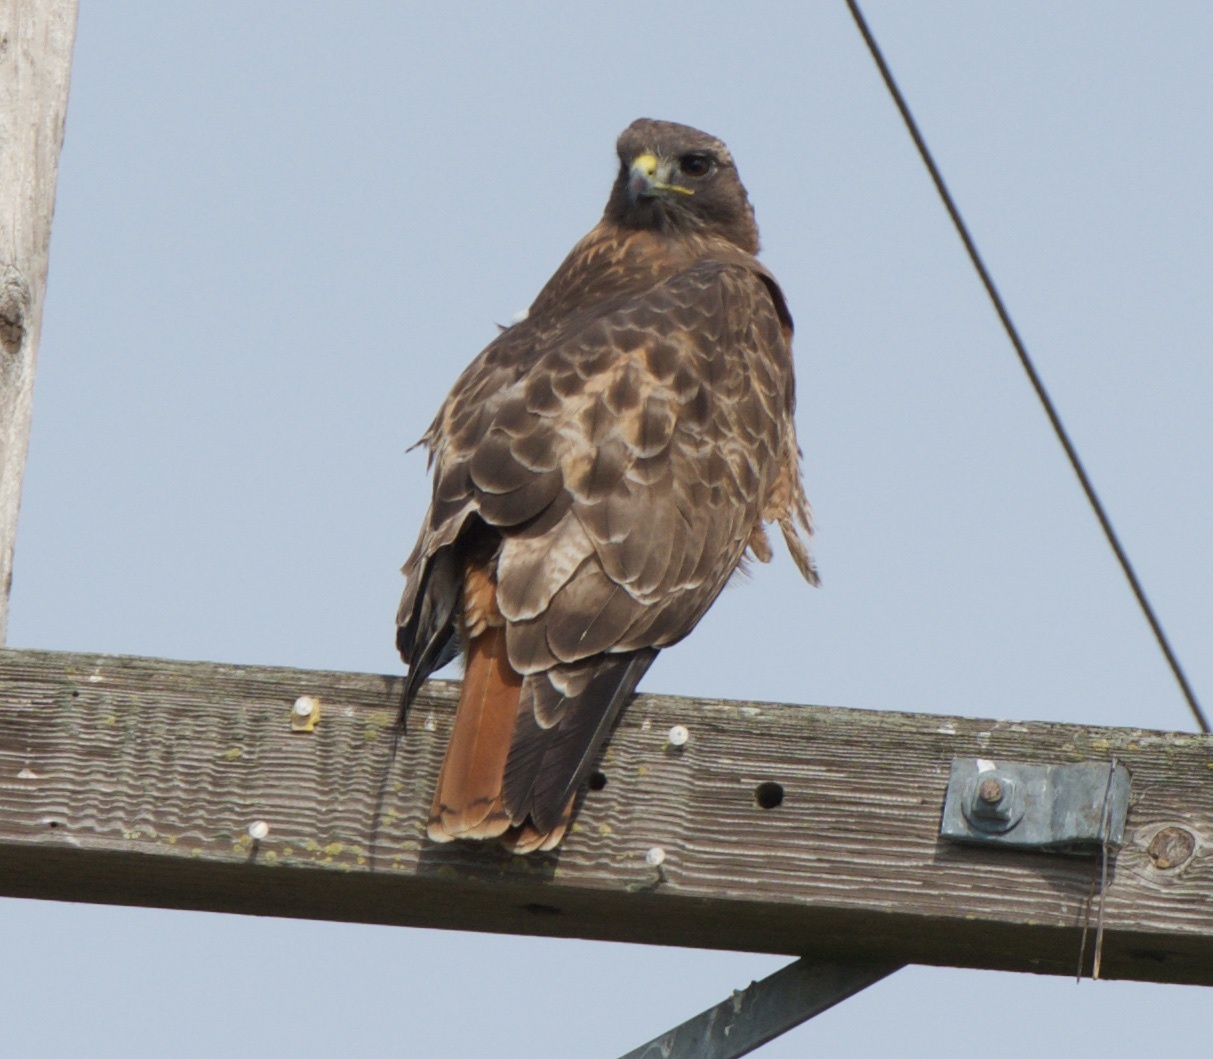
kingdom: Animalia
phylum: Chordata
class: Aves
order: Accipitriformes
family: Accipitridae
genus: Buteo
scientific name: Buteo jamaicensis
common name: Red-tailed hawk
